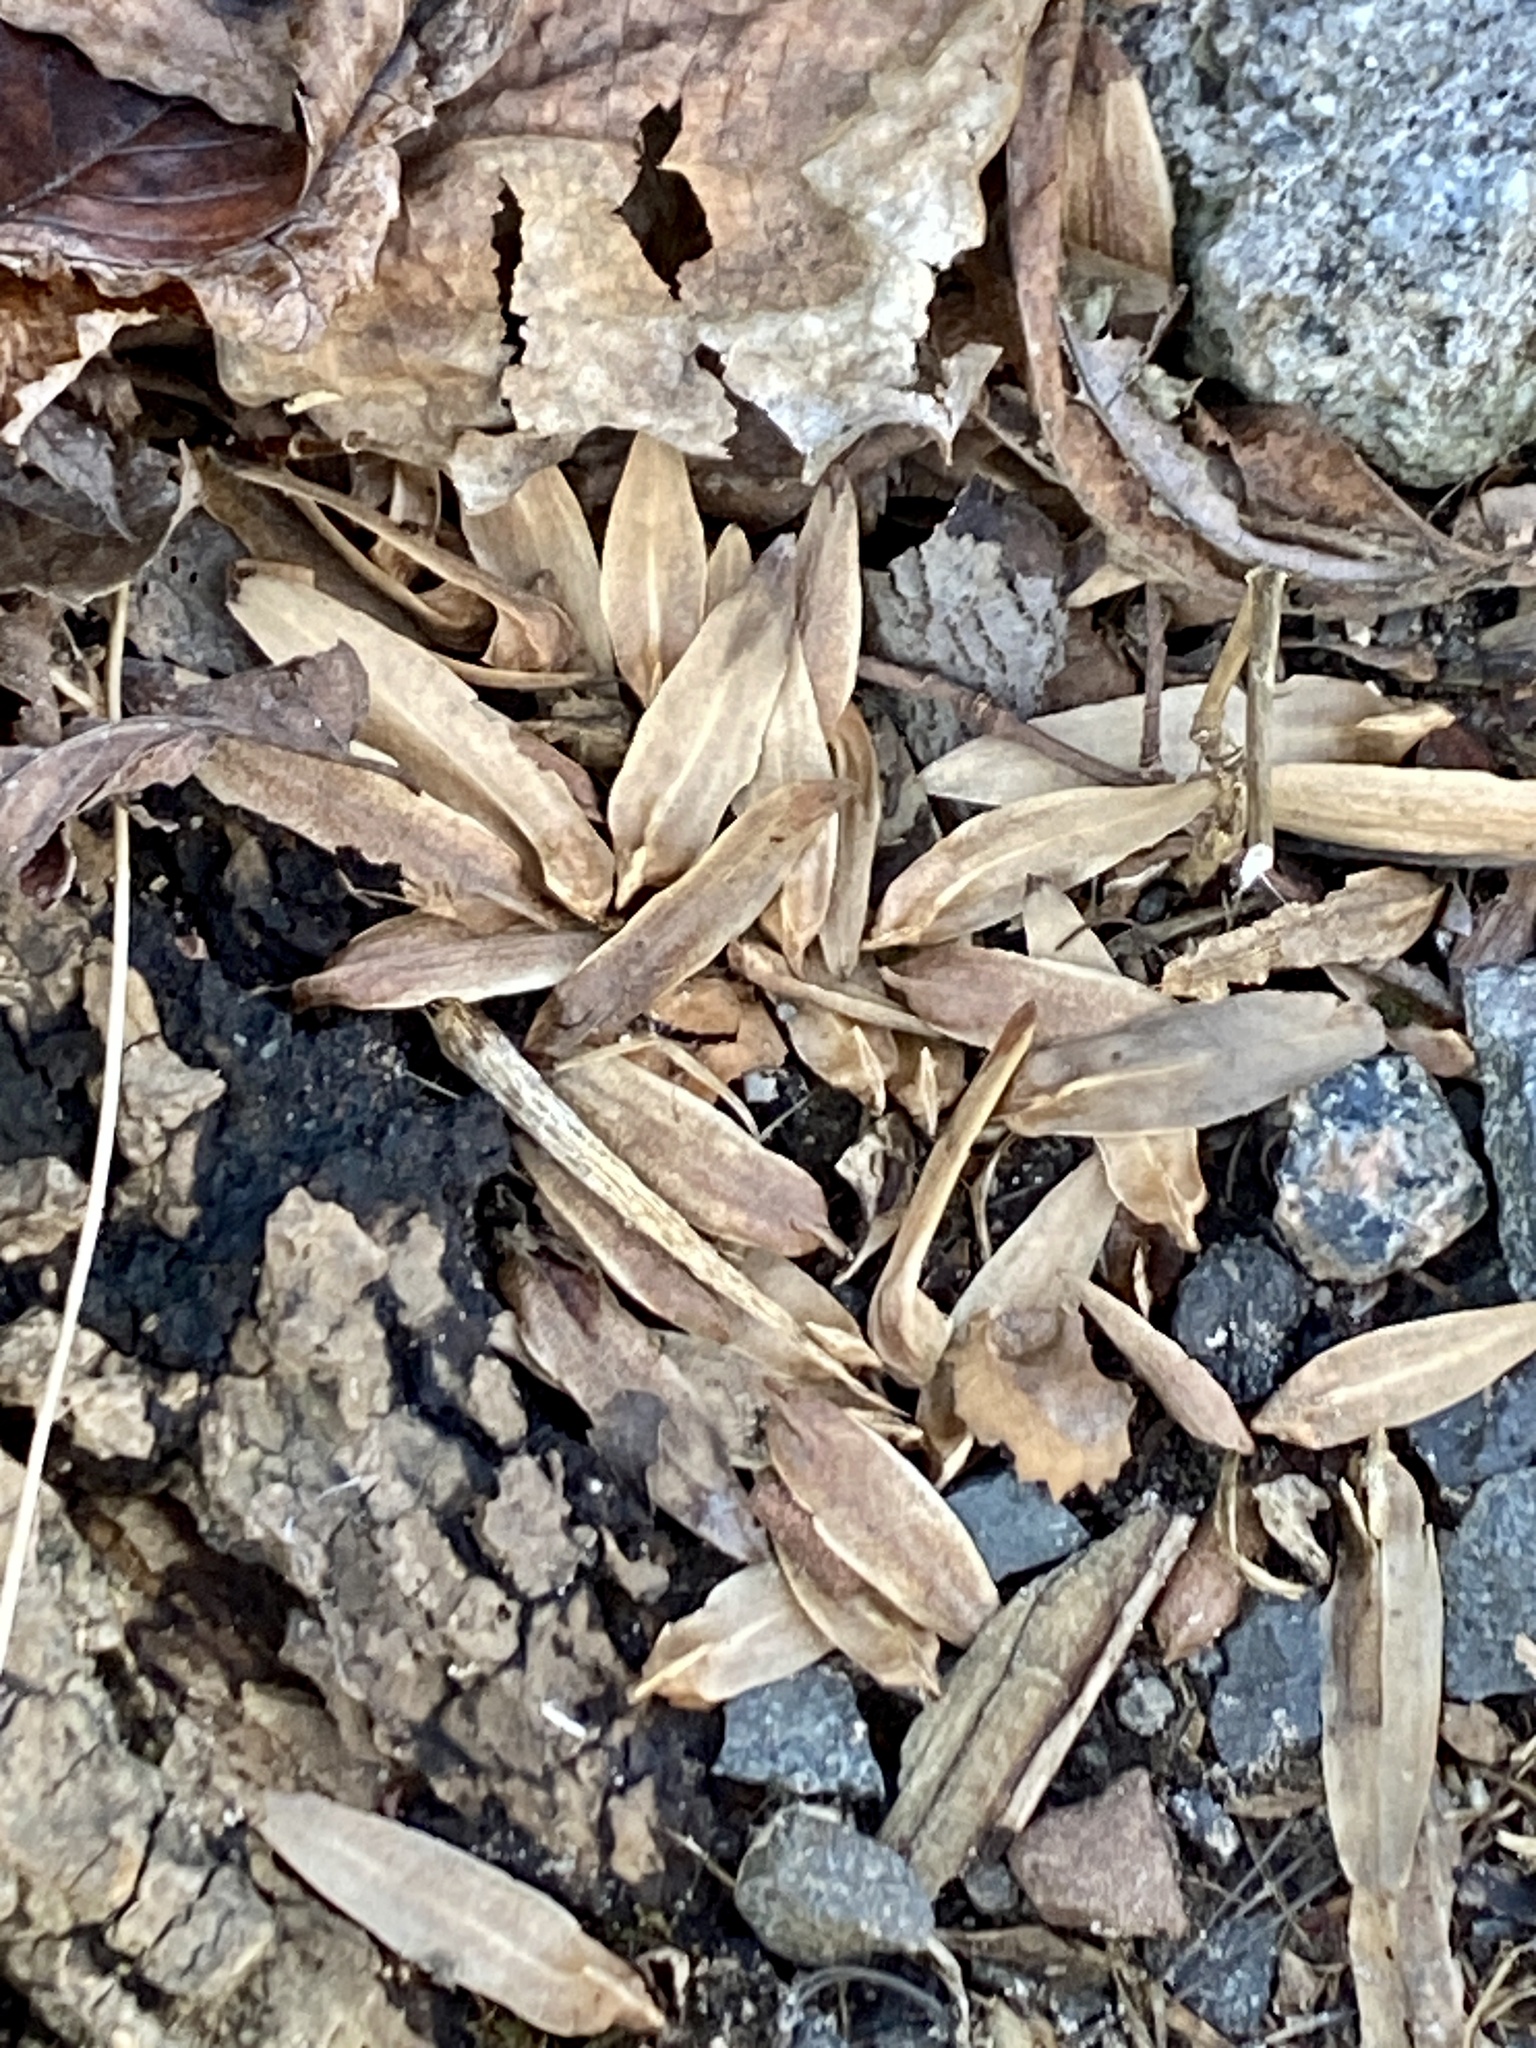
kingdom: Plantae
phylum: Tracheophyta
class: Magnoliopsida
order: Magnoliales
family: Magnoliaceae
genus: Liriodendron
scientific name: Liriodendron tulipifera
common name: Tulip tree
